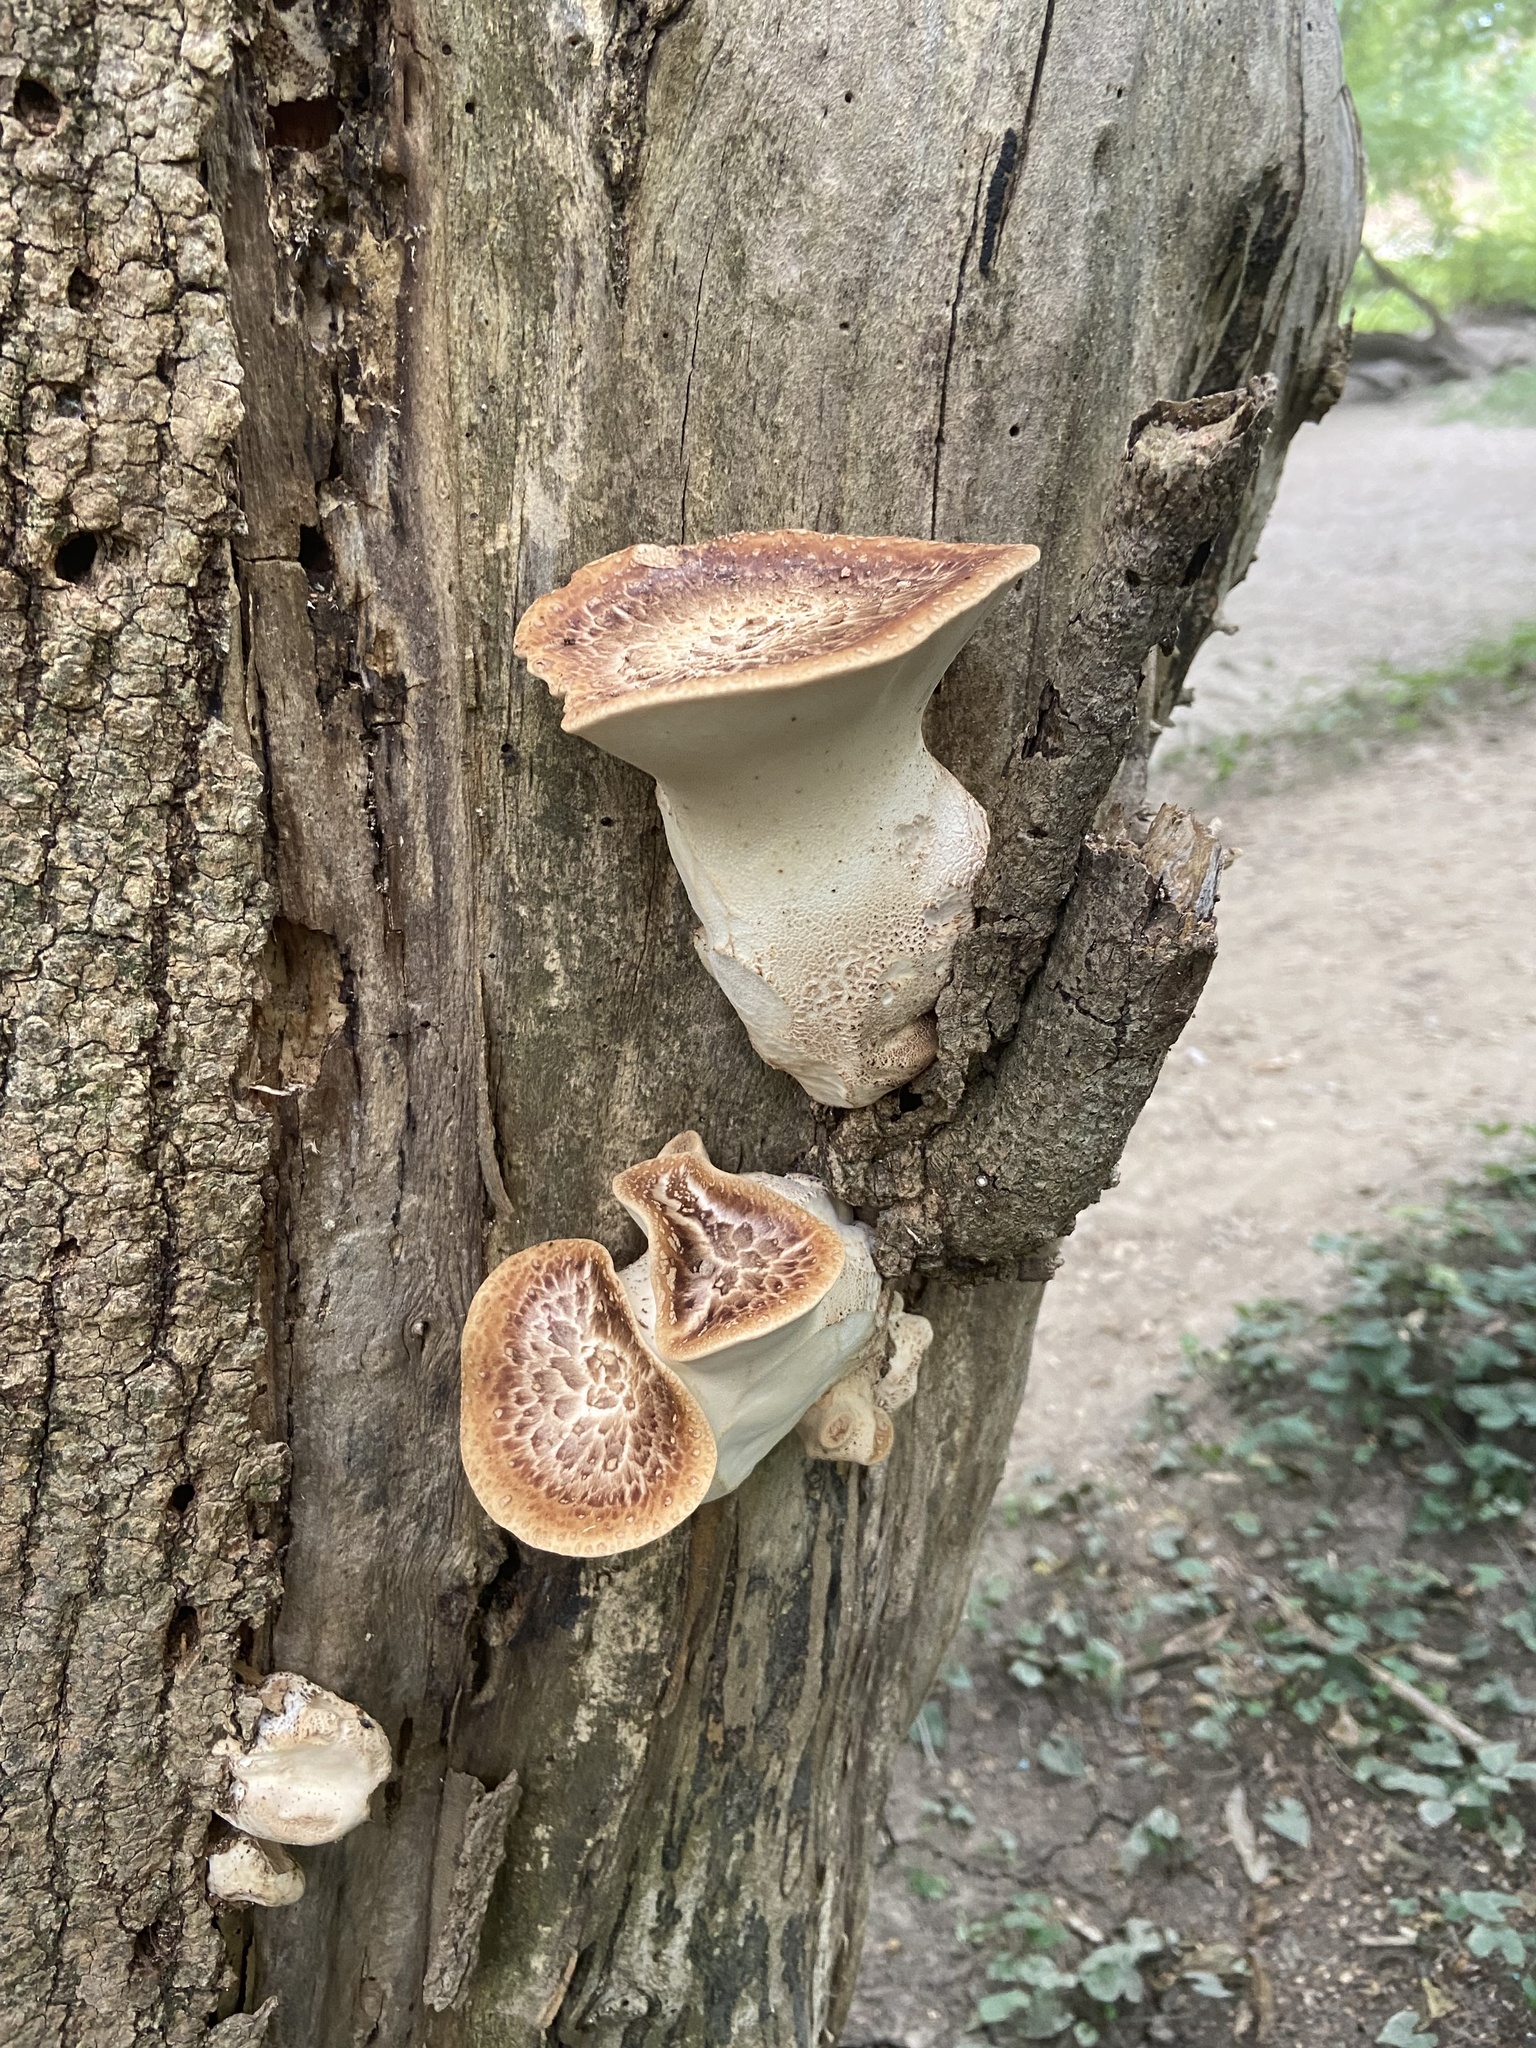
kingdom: Fungi
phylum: Basidiomycota
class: Agaricomycetes
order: Polyporales
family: Polyporaceae
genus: Cerioporus
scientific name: Cerioporus squamosus
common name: Dryad's saddle
